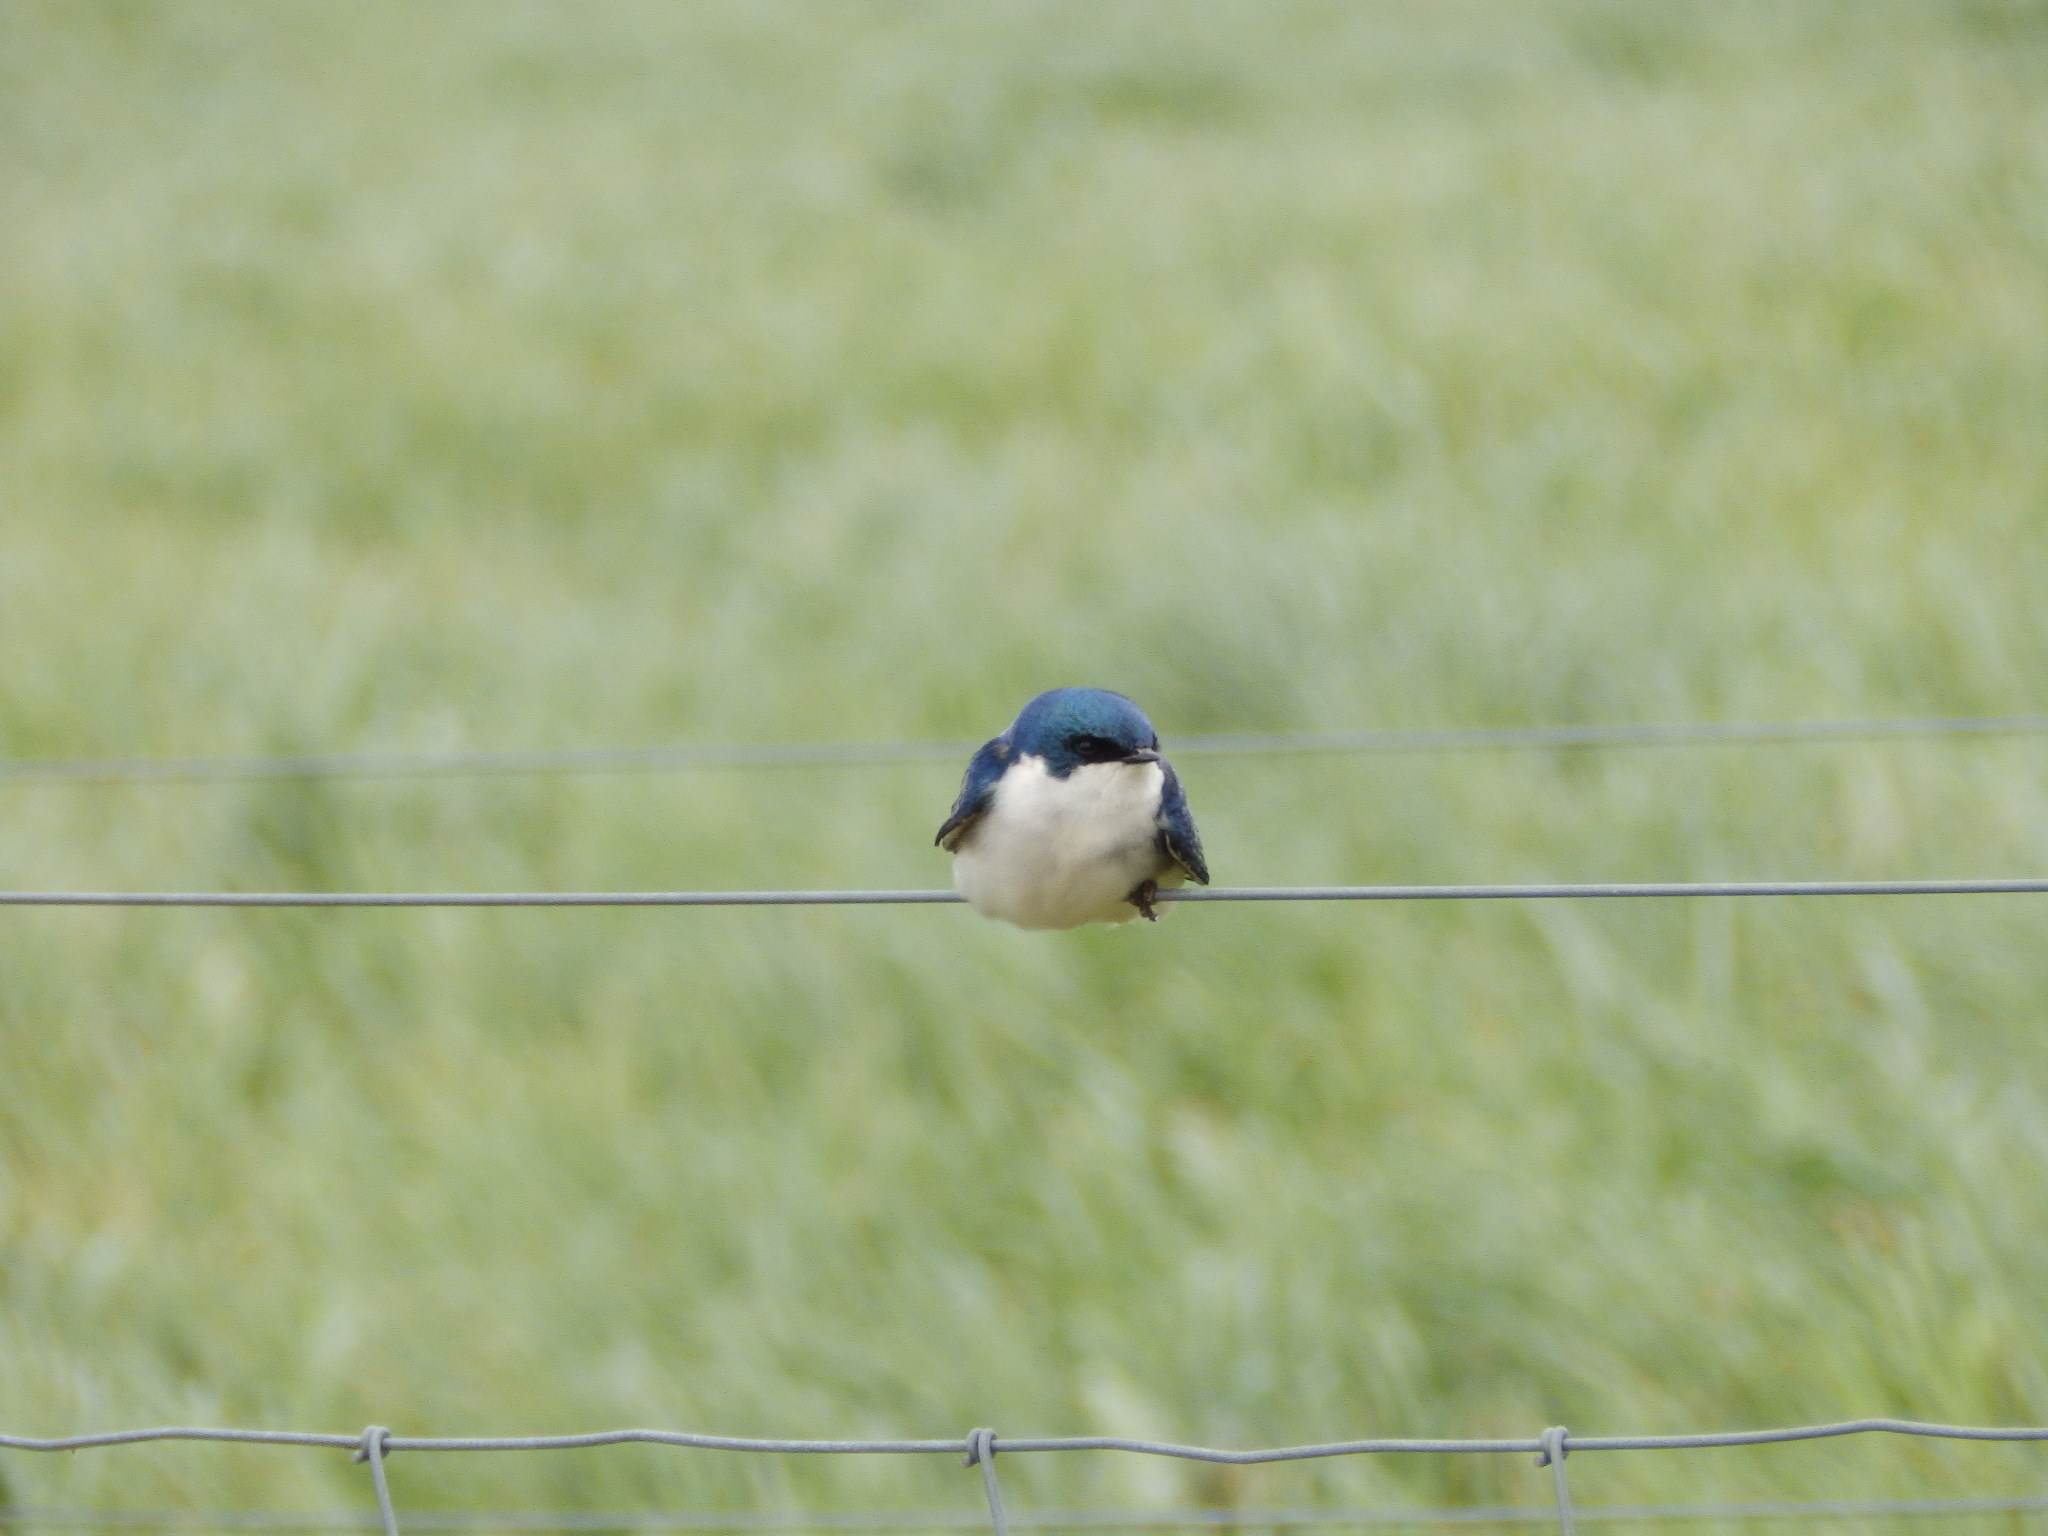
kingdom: Animalia
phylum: Chordata
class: Aves
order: Passeriformes
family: Hirundinidae
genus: Tachycineta
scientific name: Tachycineta bicolor
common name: Tree swallow
